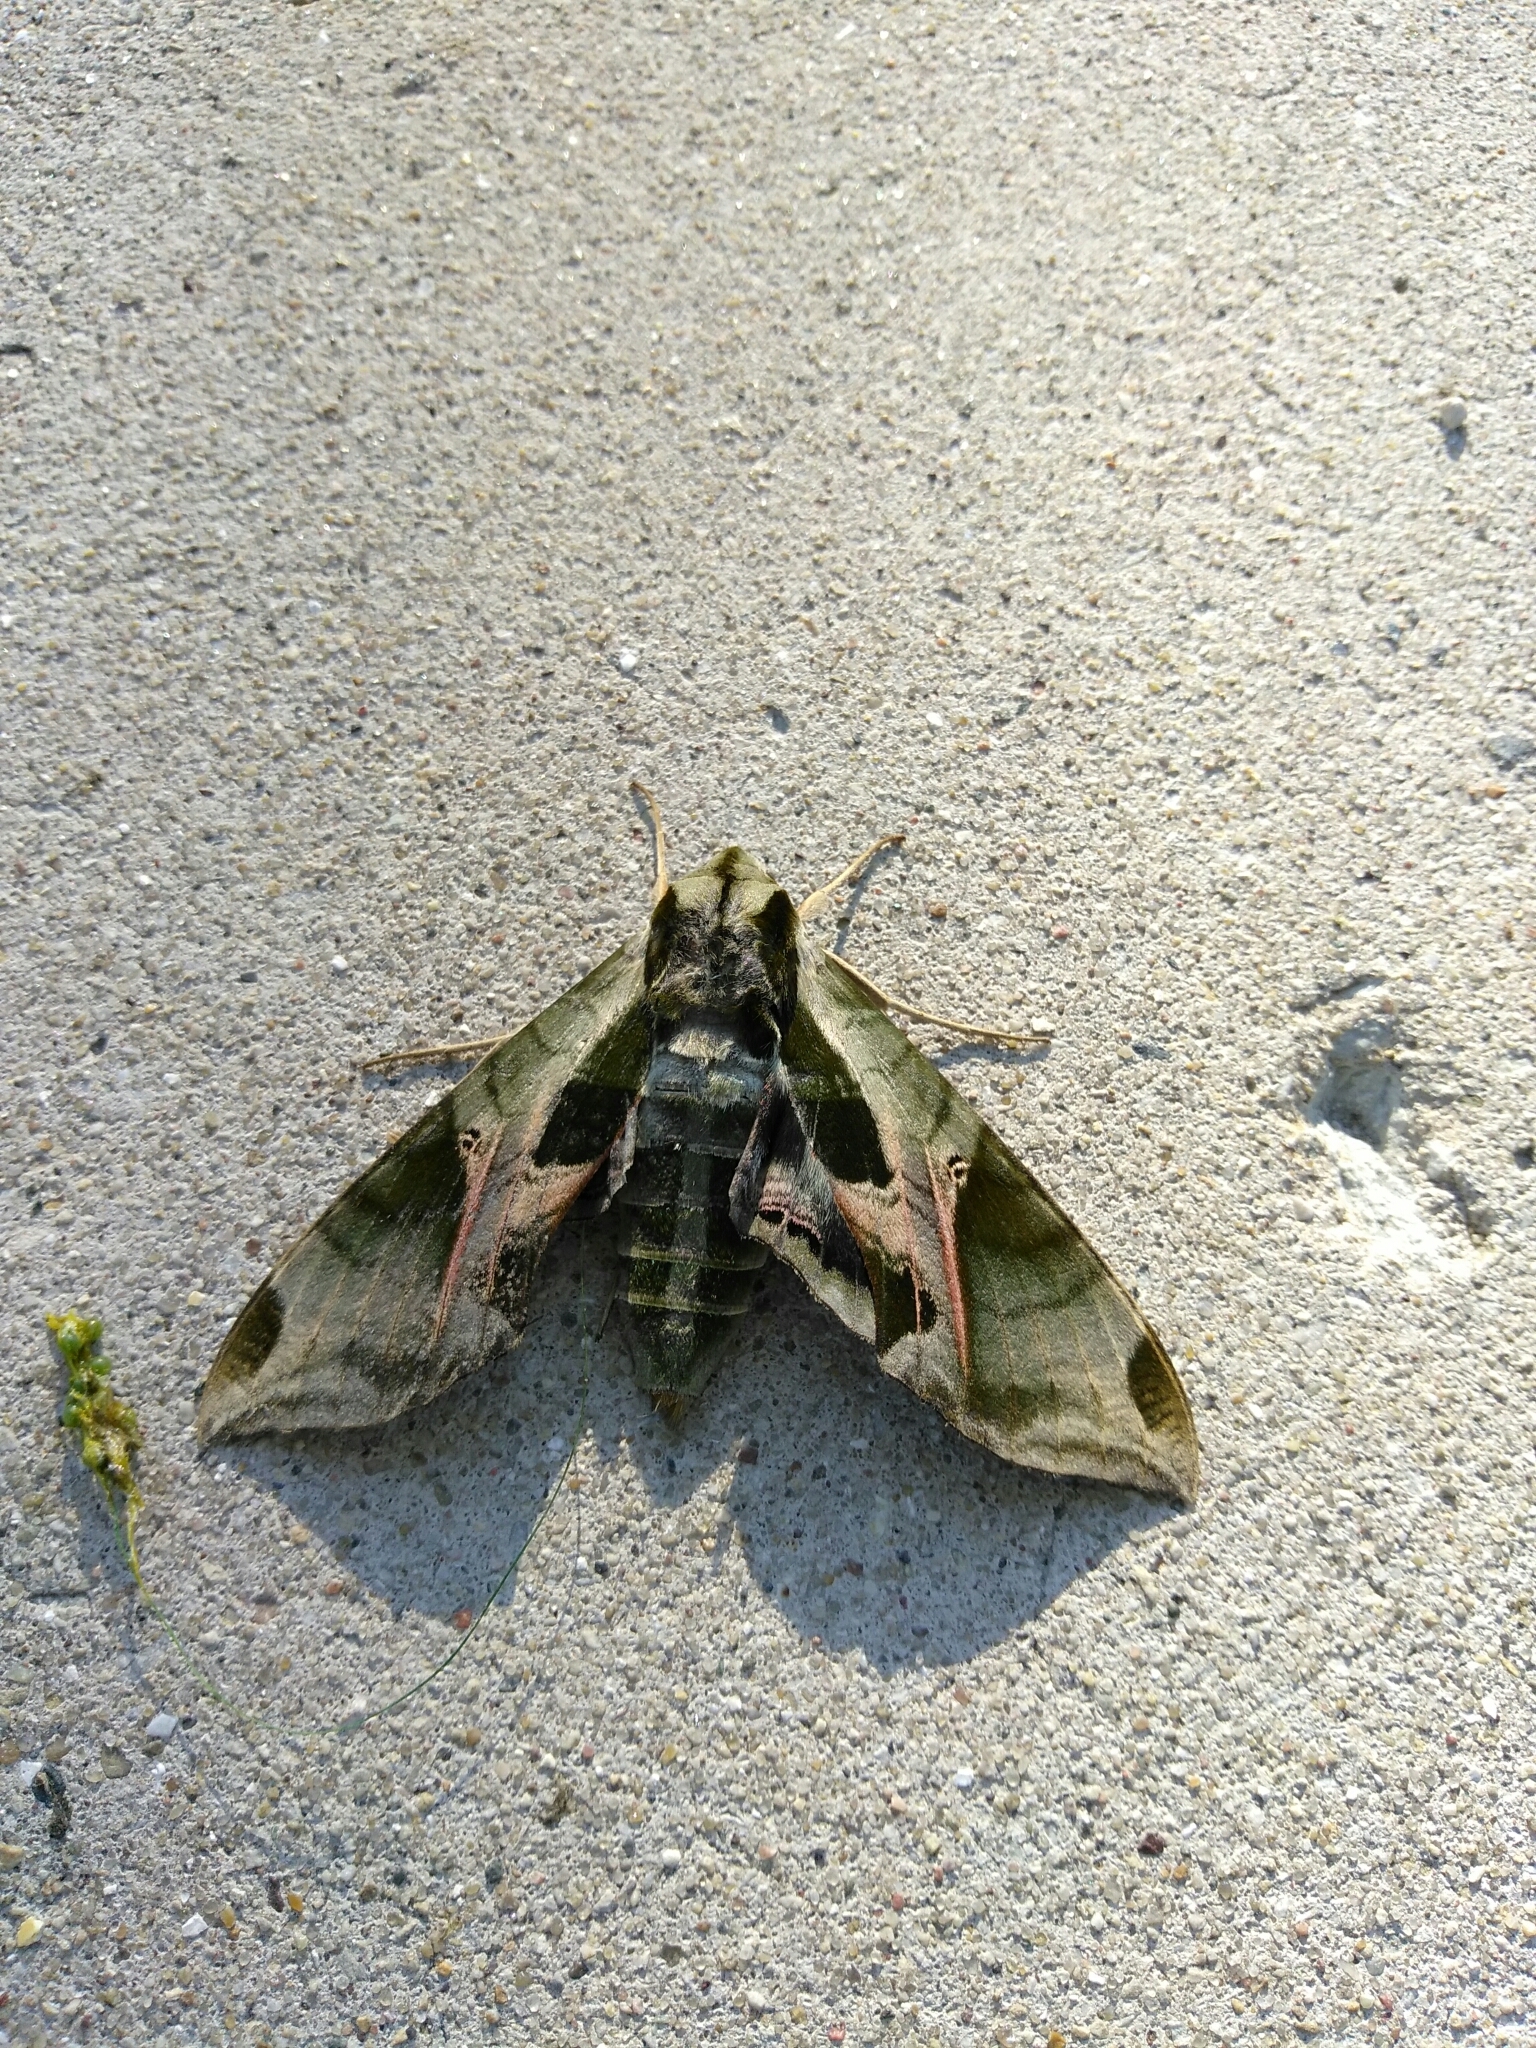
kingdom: Animalia
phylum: Arthropoda
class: Insecta
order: Lepidoptera
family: Sphingidae
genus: Eumorpha
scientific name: Eumorpha pandorus
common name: Pandora sphinx
